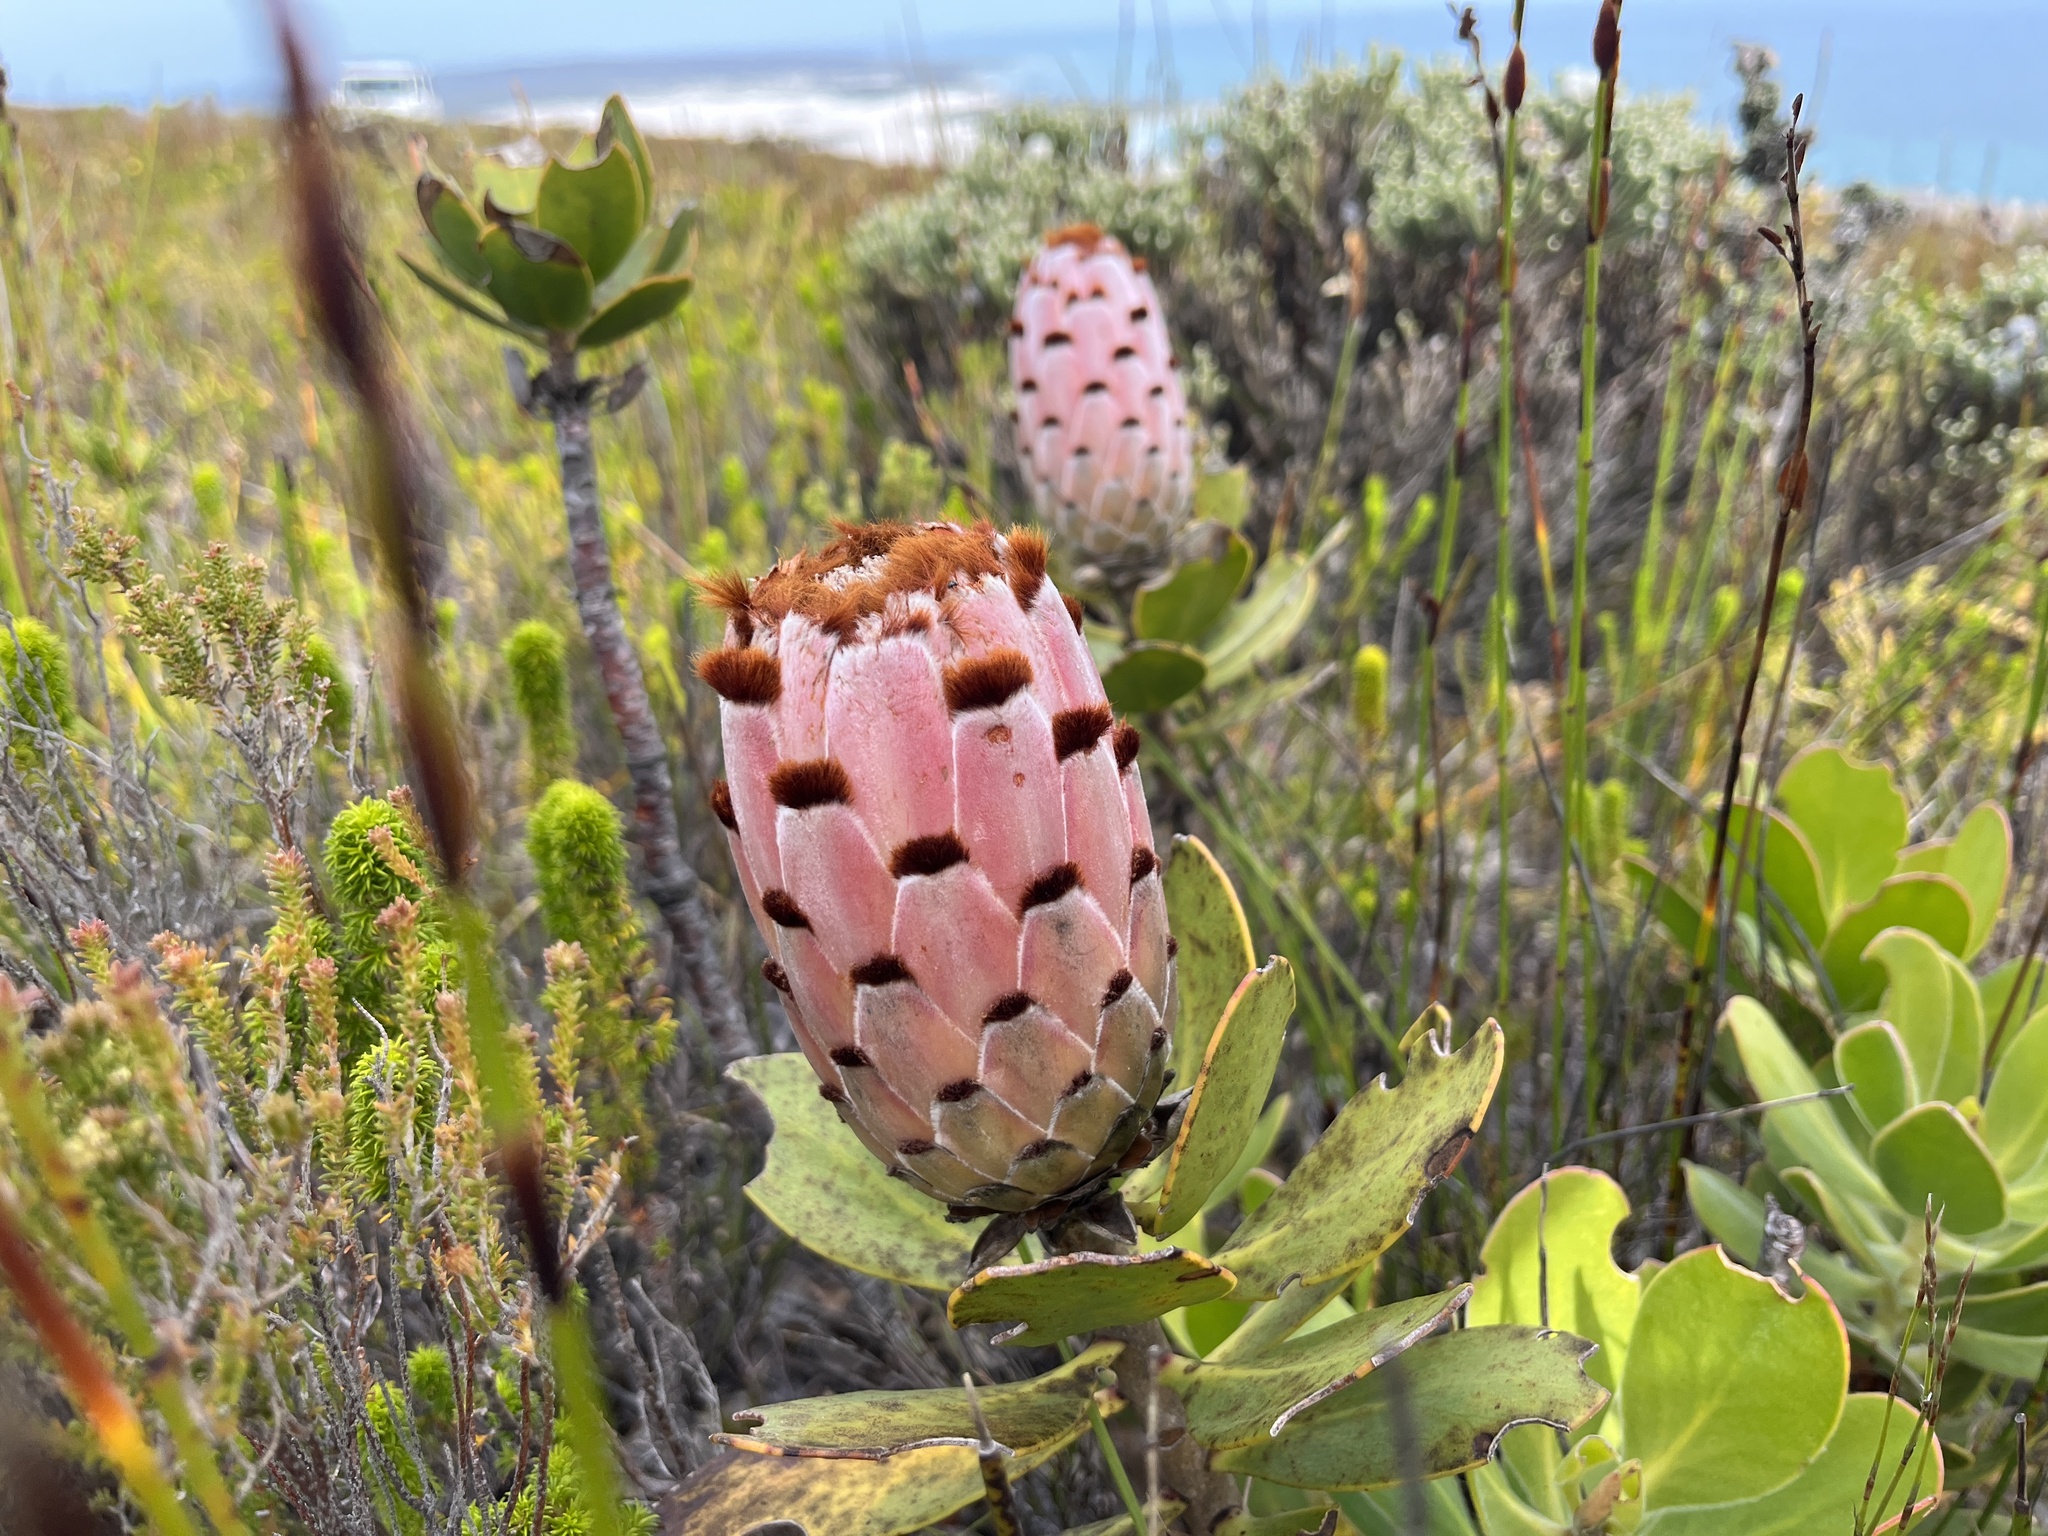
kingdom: Plantae
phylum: Tracheophyta
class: Magnoliopsida
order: Proteales
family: Proteaceae
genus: Protea
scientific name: Protea speciosa
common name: Brown-beard sugarbush
